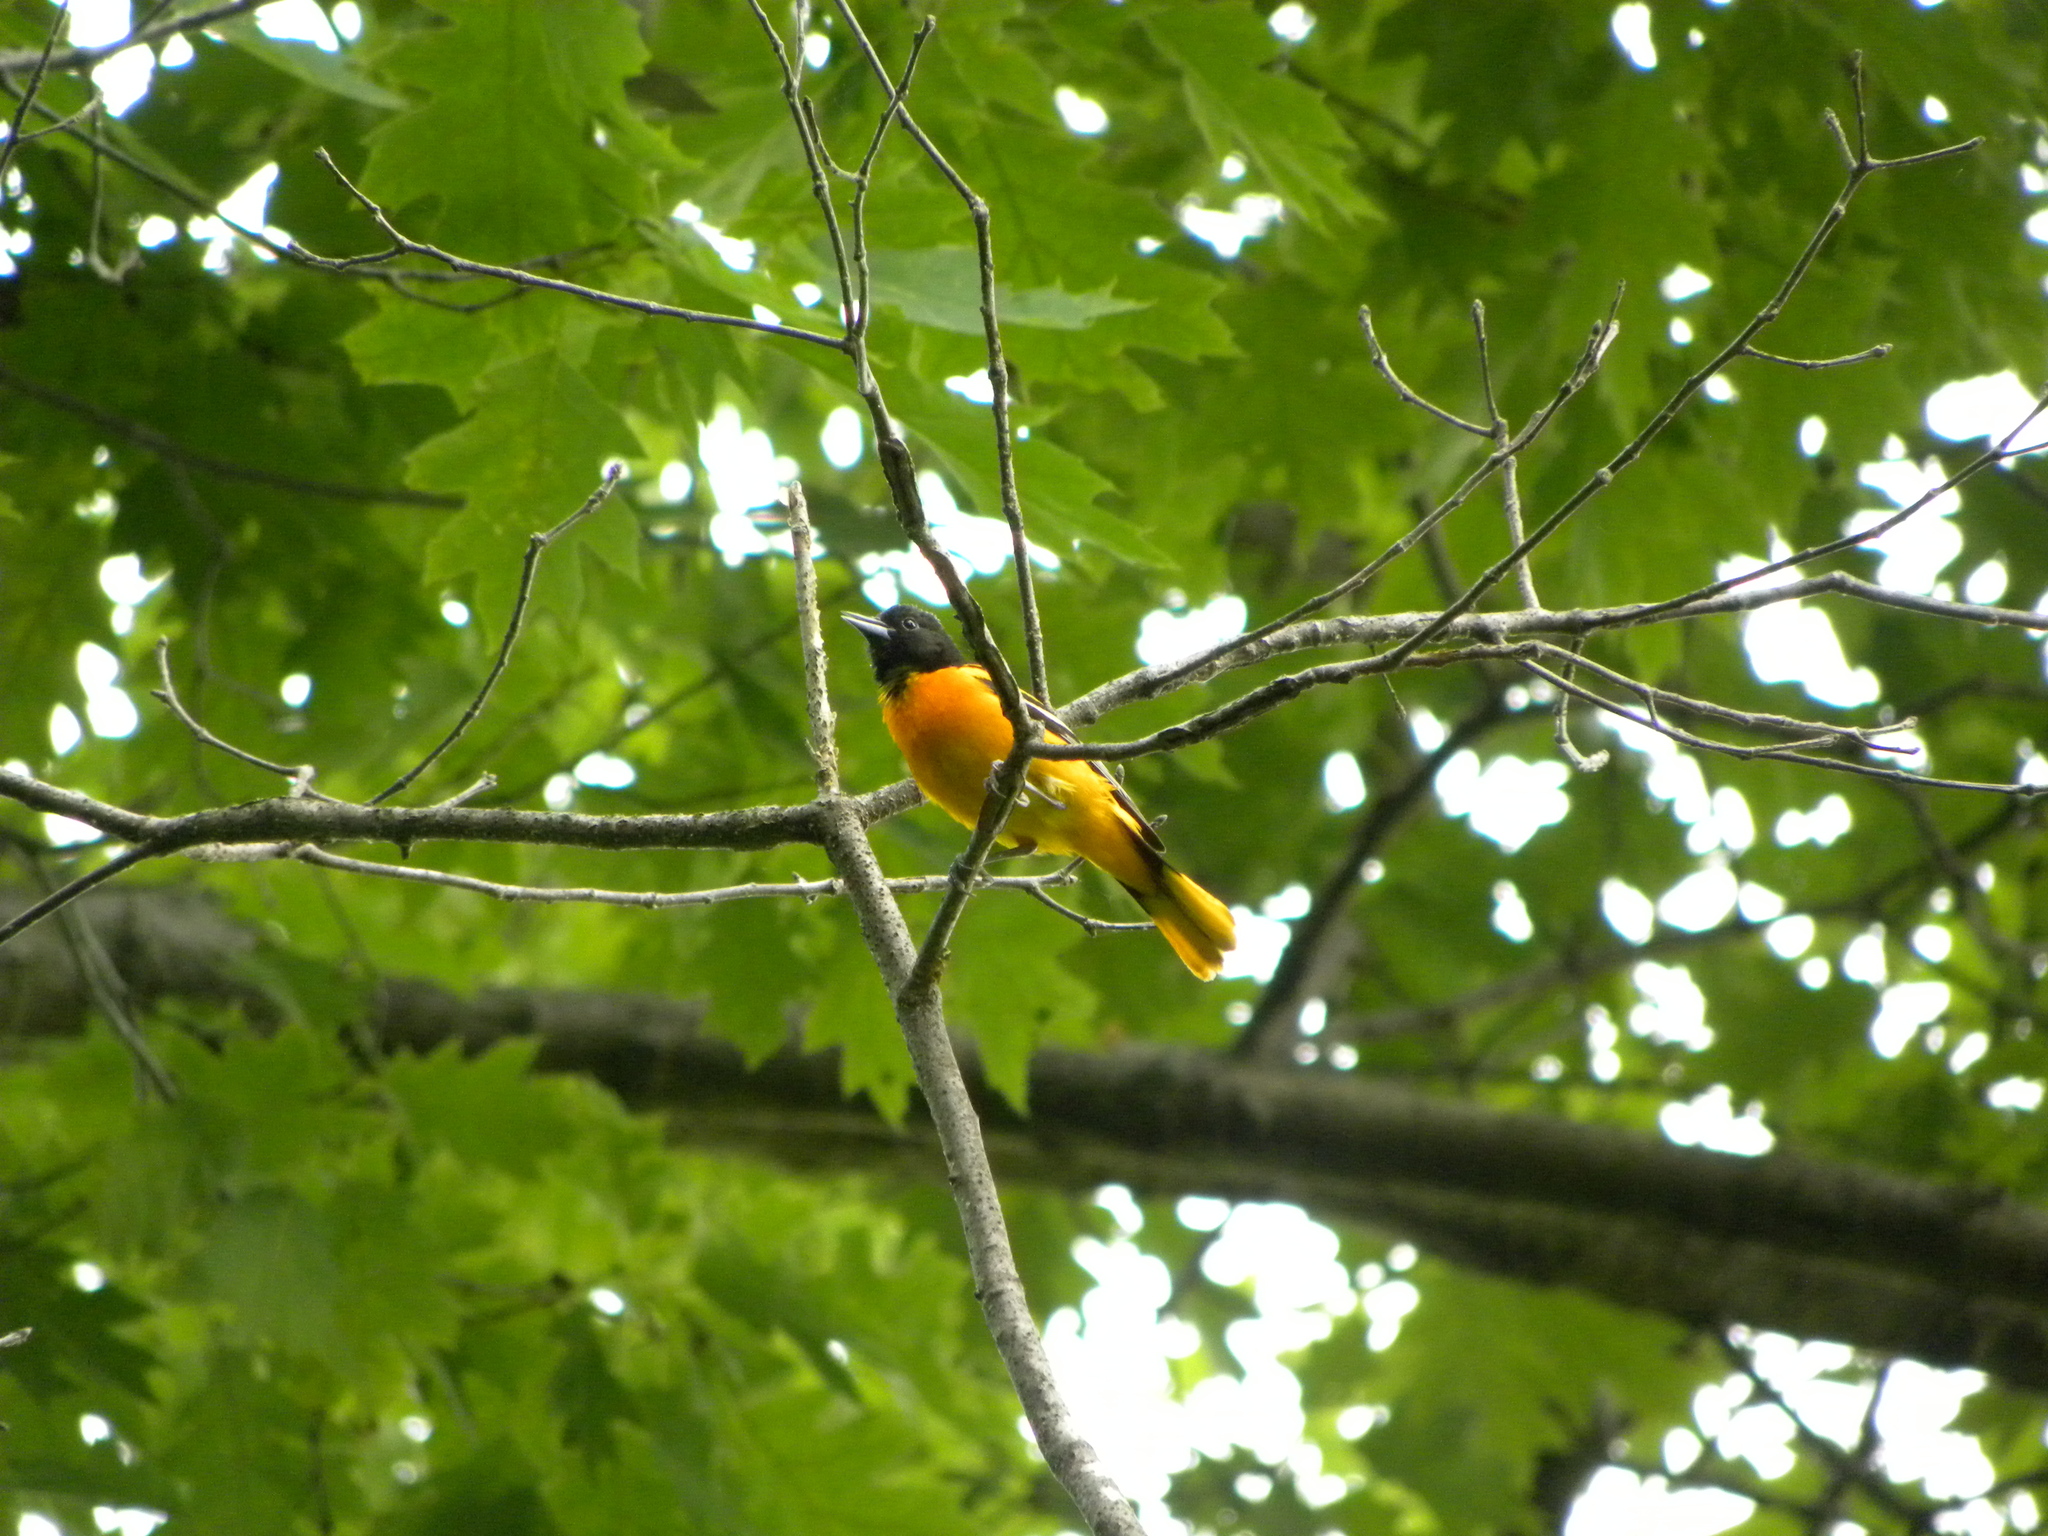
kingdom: Animalia
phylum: Chordata
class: Aves
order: Passeriformes
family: Icteridae
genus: Icterus
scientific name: Icterus galbula
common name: Baltimore oriole
